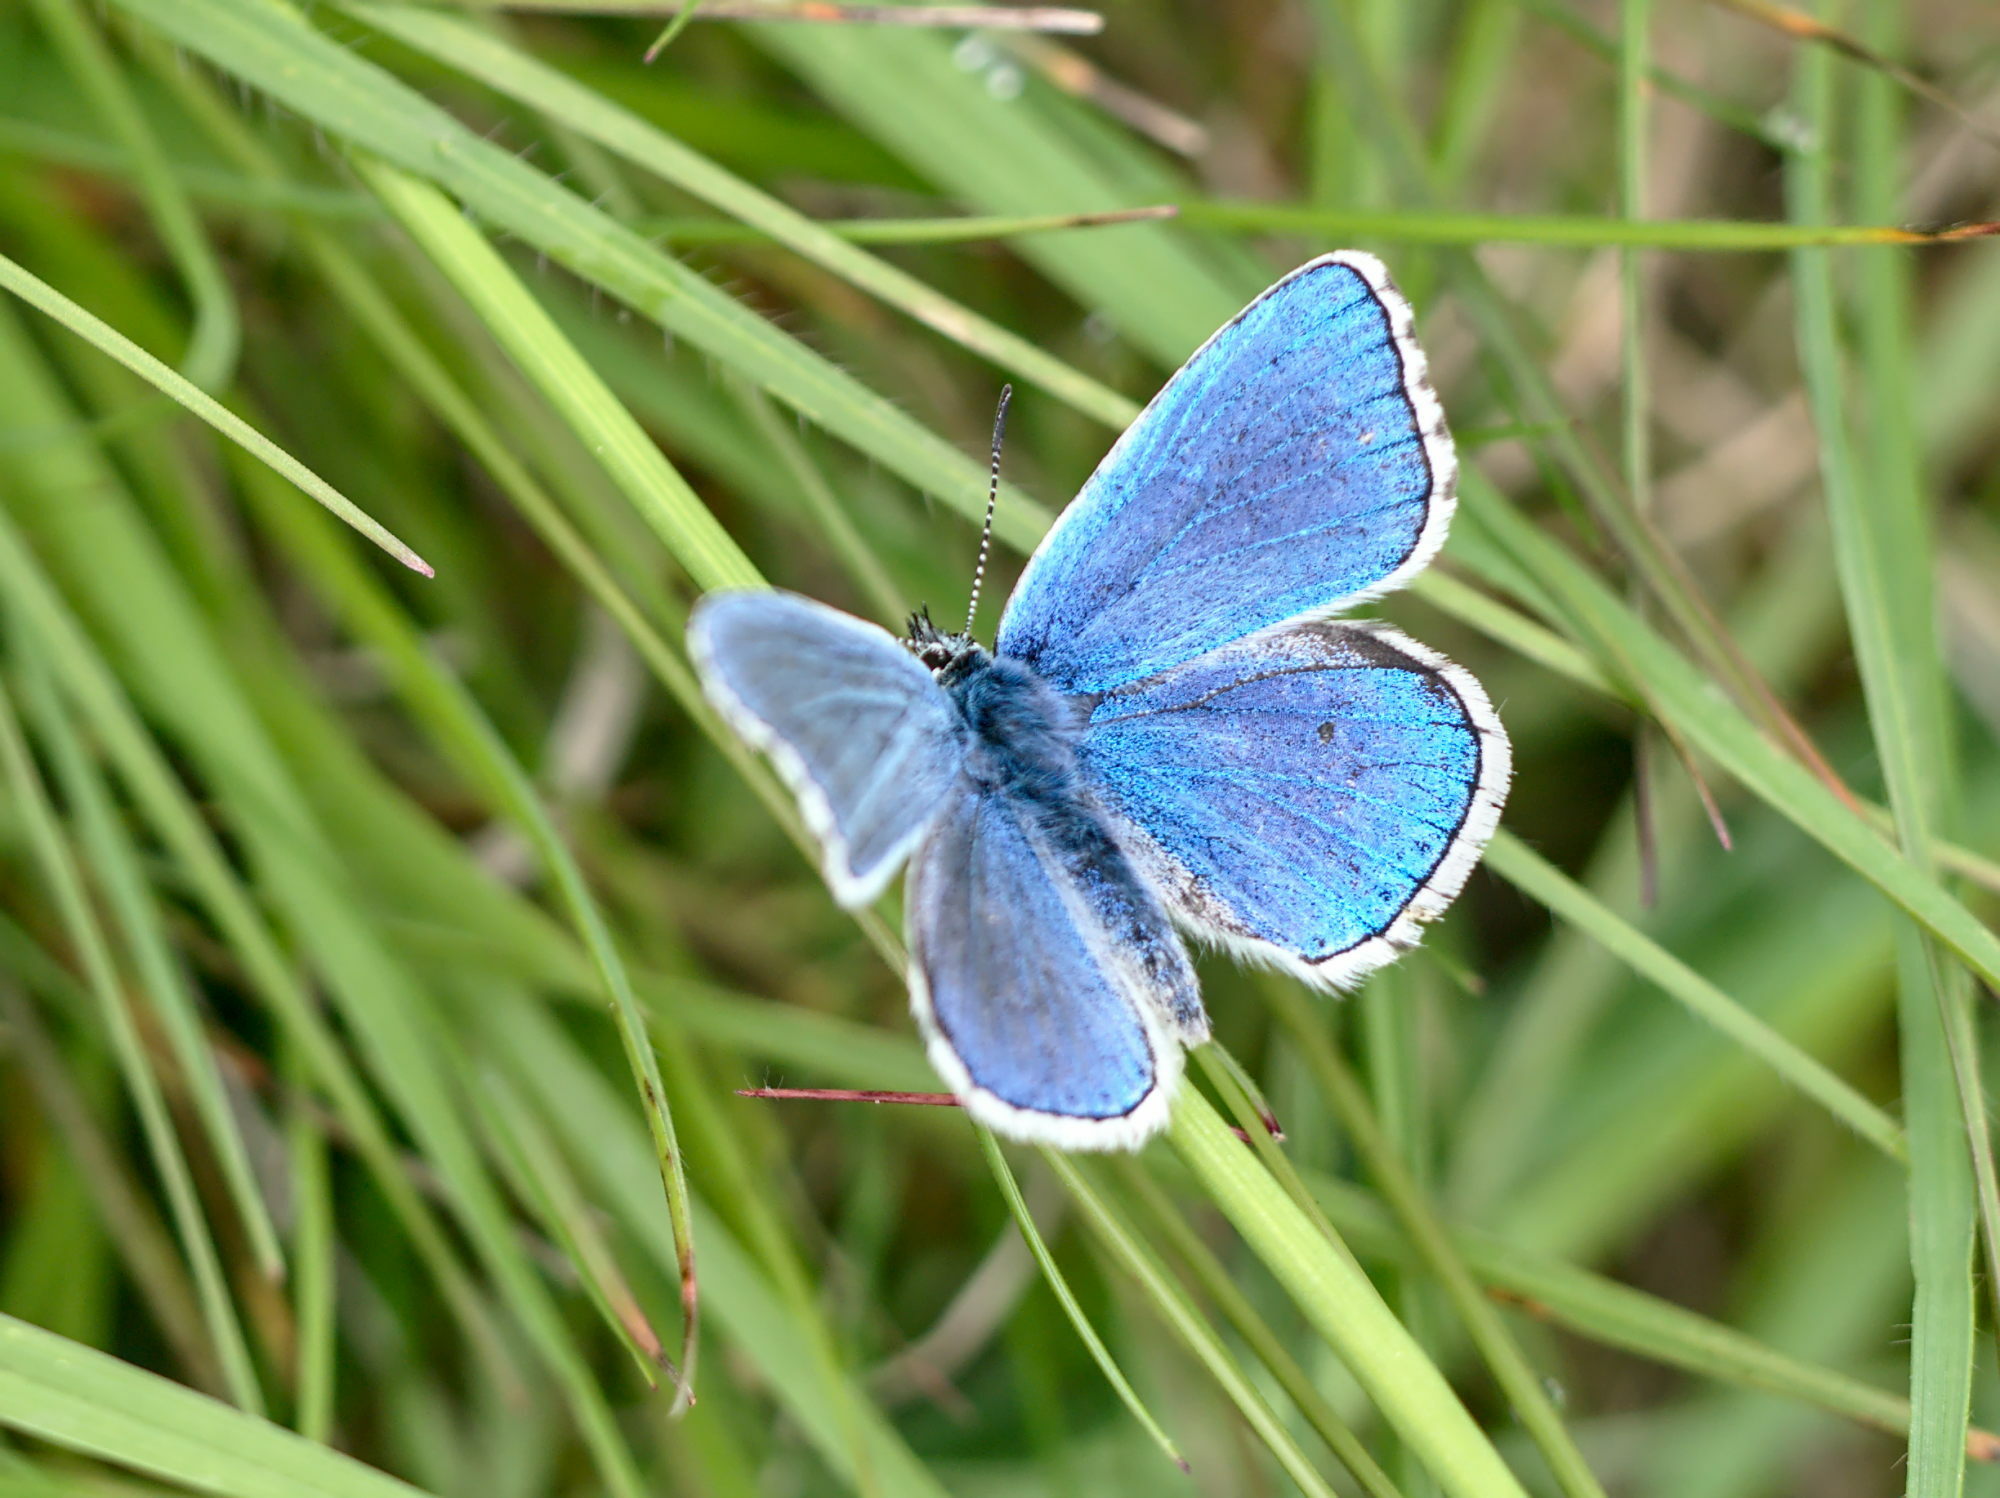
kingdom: Animalia
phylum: Arthropoda
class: Insecta
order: Lepidoptera
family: Lycaenidae
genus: Lysandra
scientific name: Lysandra bellargus
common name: Adonis blue
